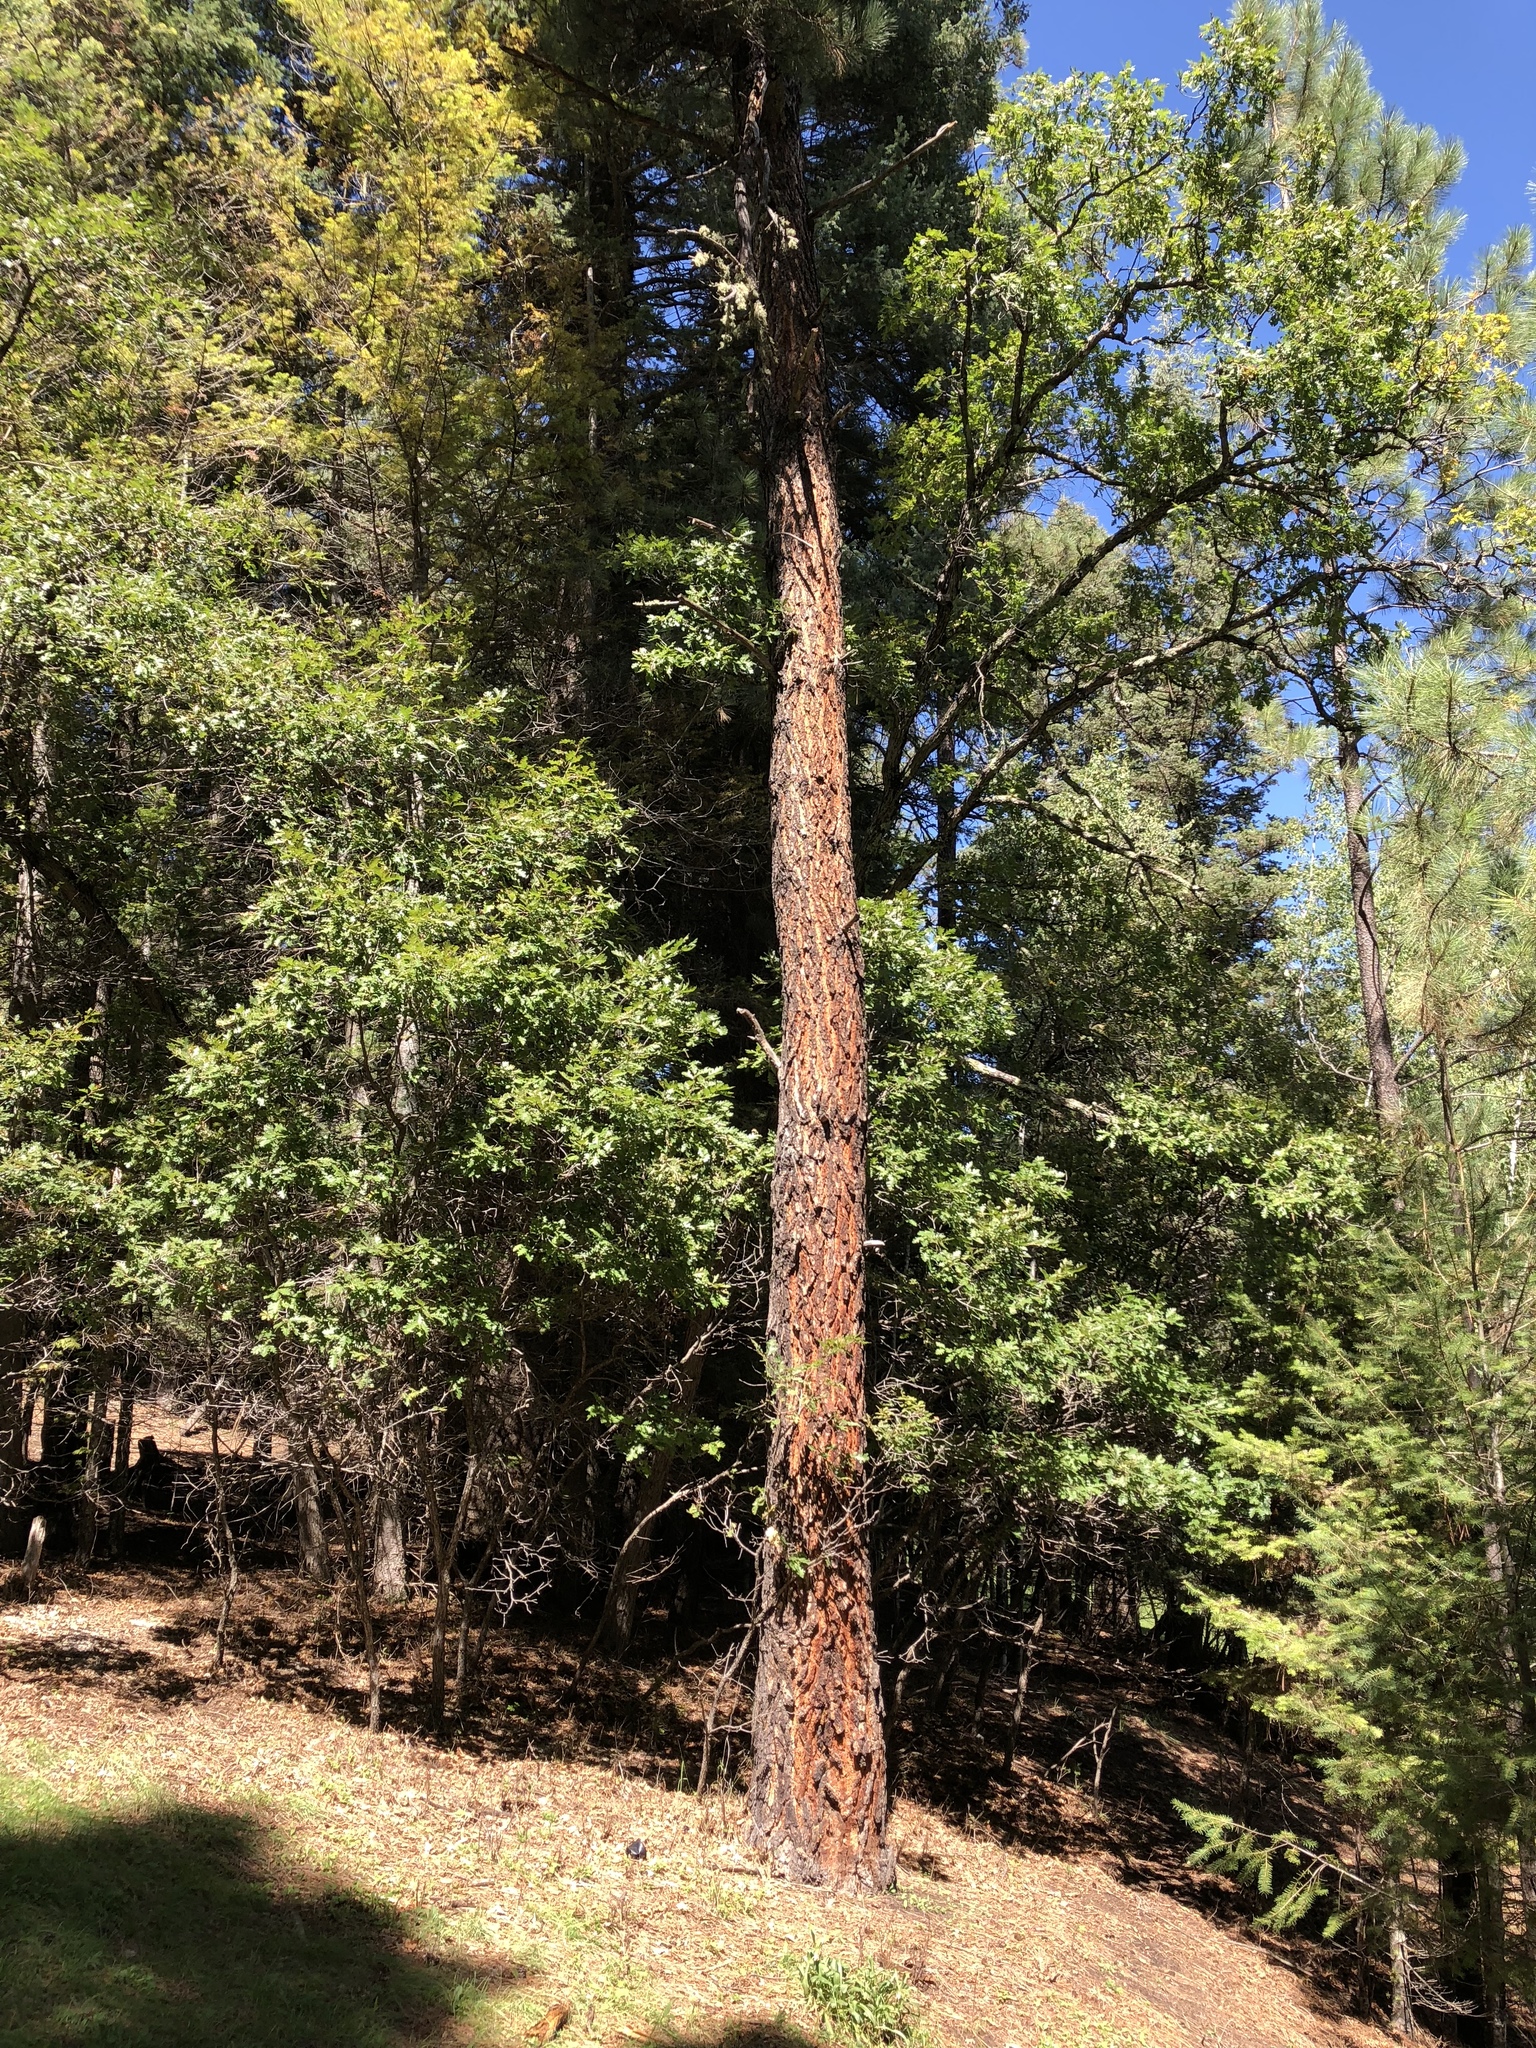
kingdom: Plantae
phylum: Tracheophyta
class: Pinopsida
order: Pinales
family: Pinaceae
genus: Pinus
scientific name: Pinus ponderosa
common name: Western yellow-pine
